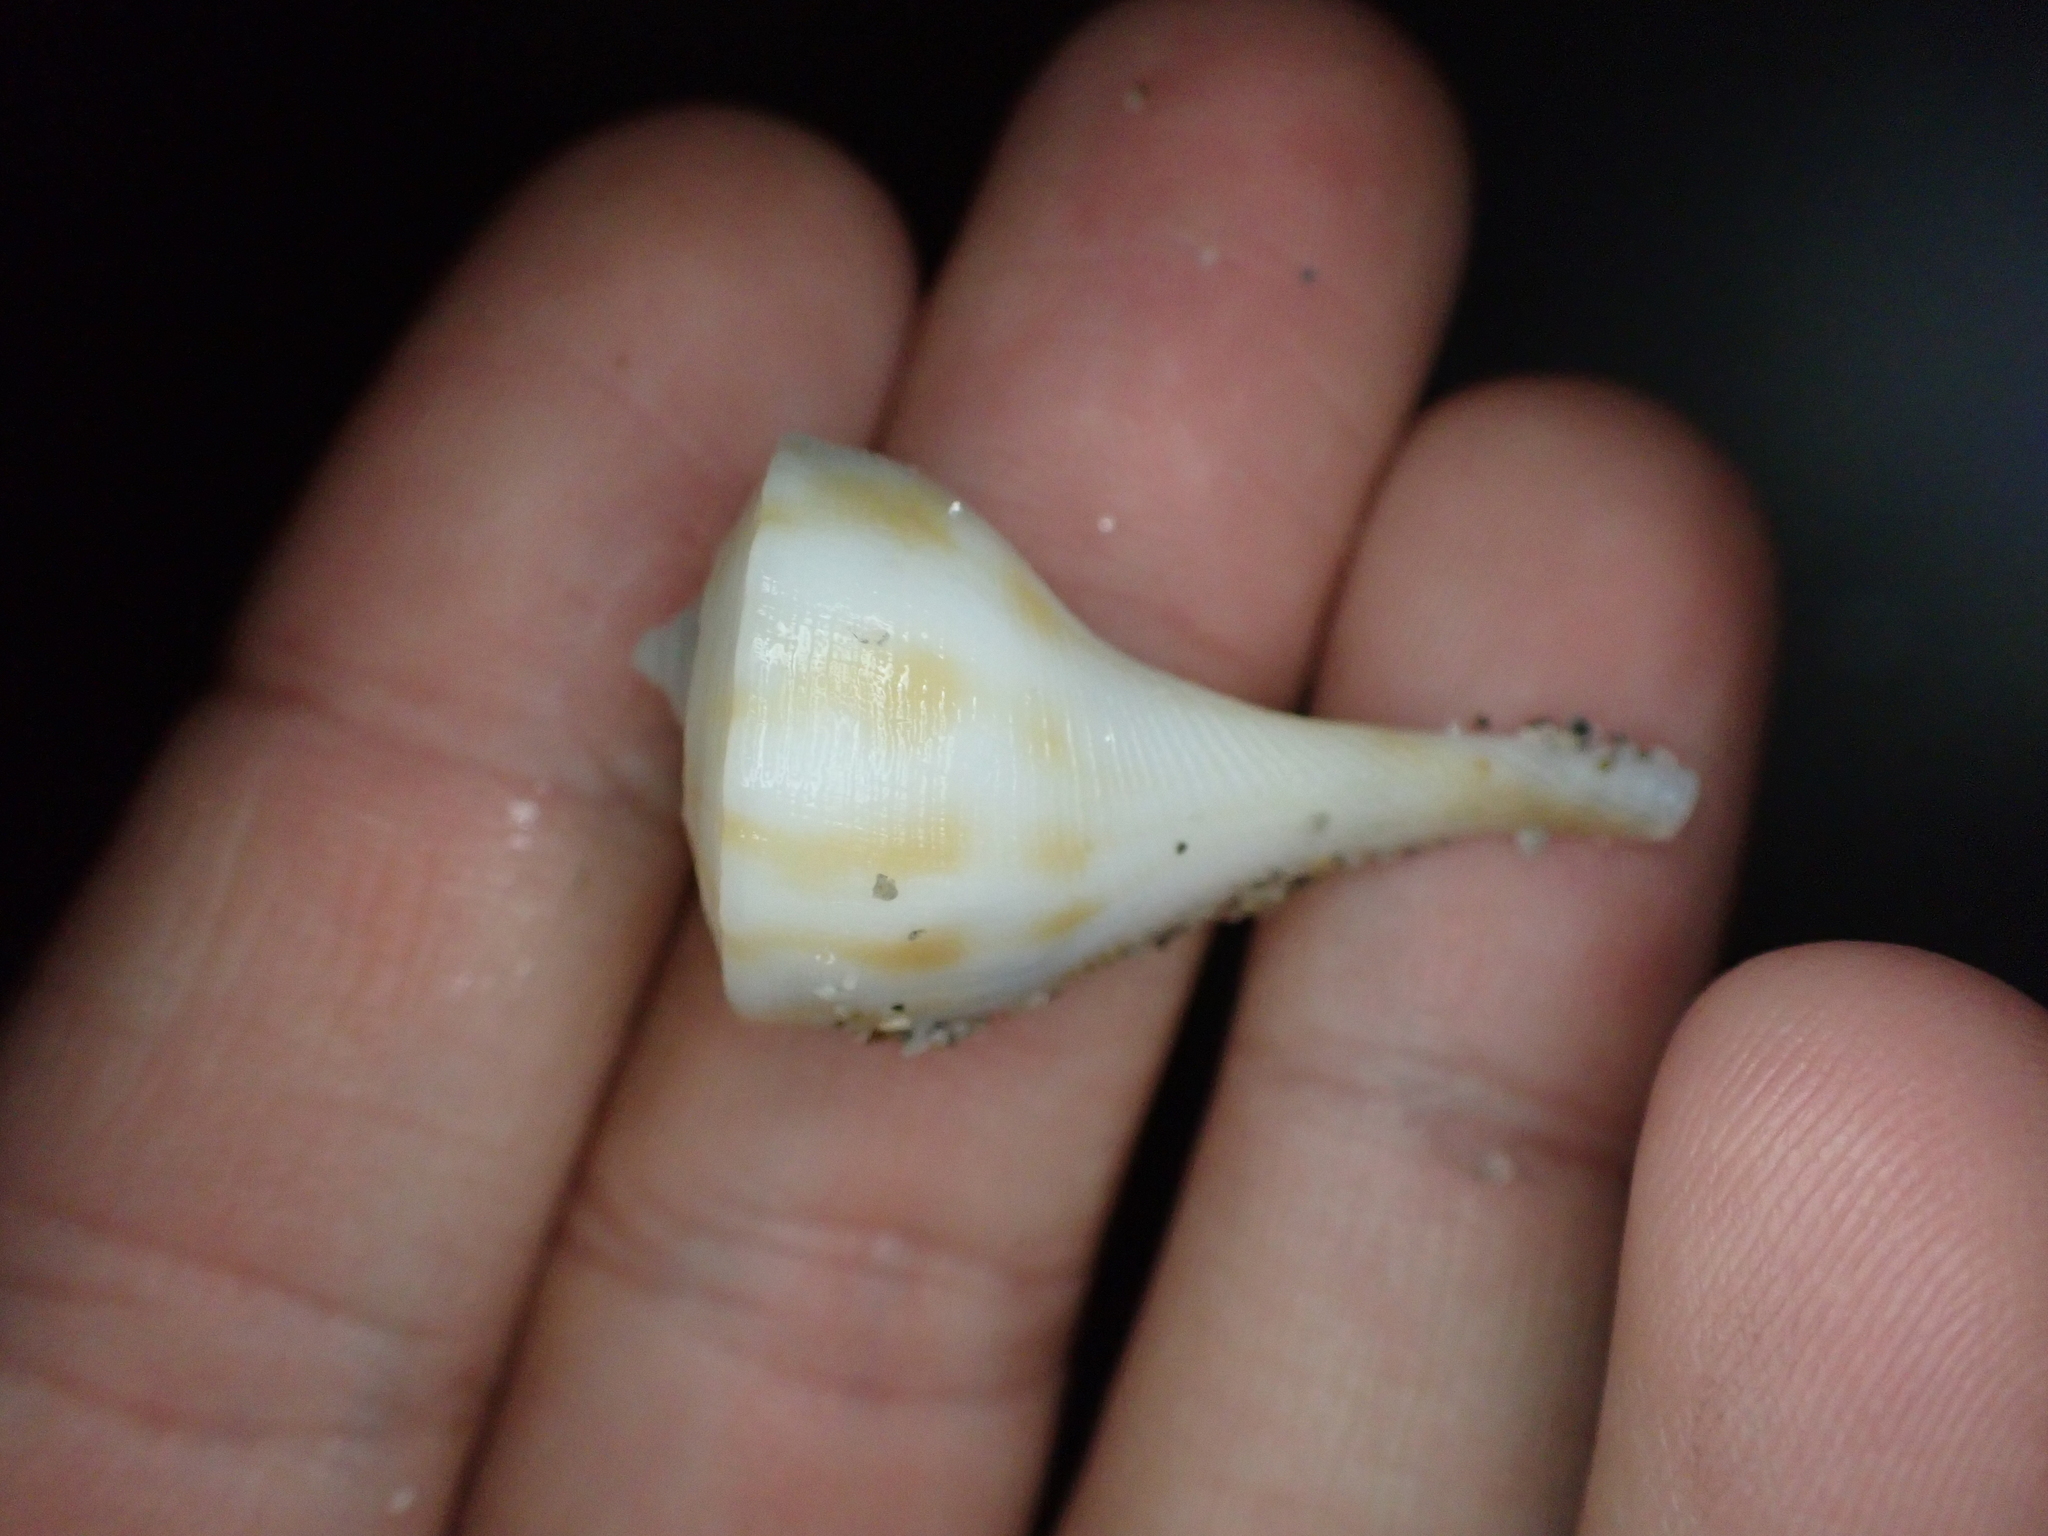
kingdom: Animalia
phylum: Mollusca
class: Gastropoda
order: Neogastropoda
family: Busyconidae
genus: Fulguropsis
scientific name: Fulguropsis pyruloides
